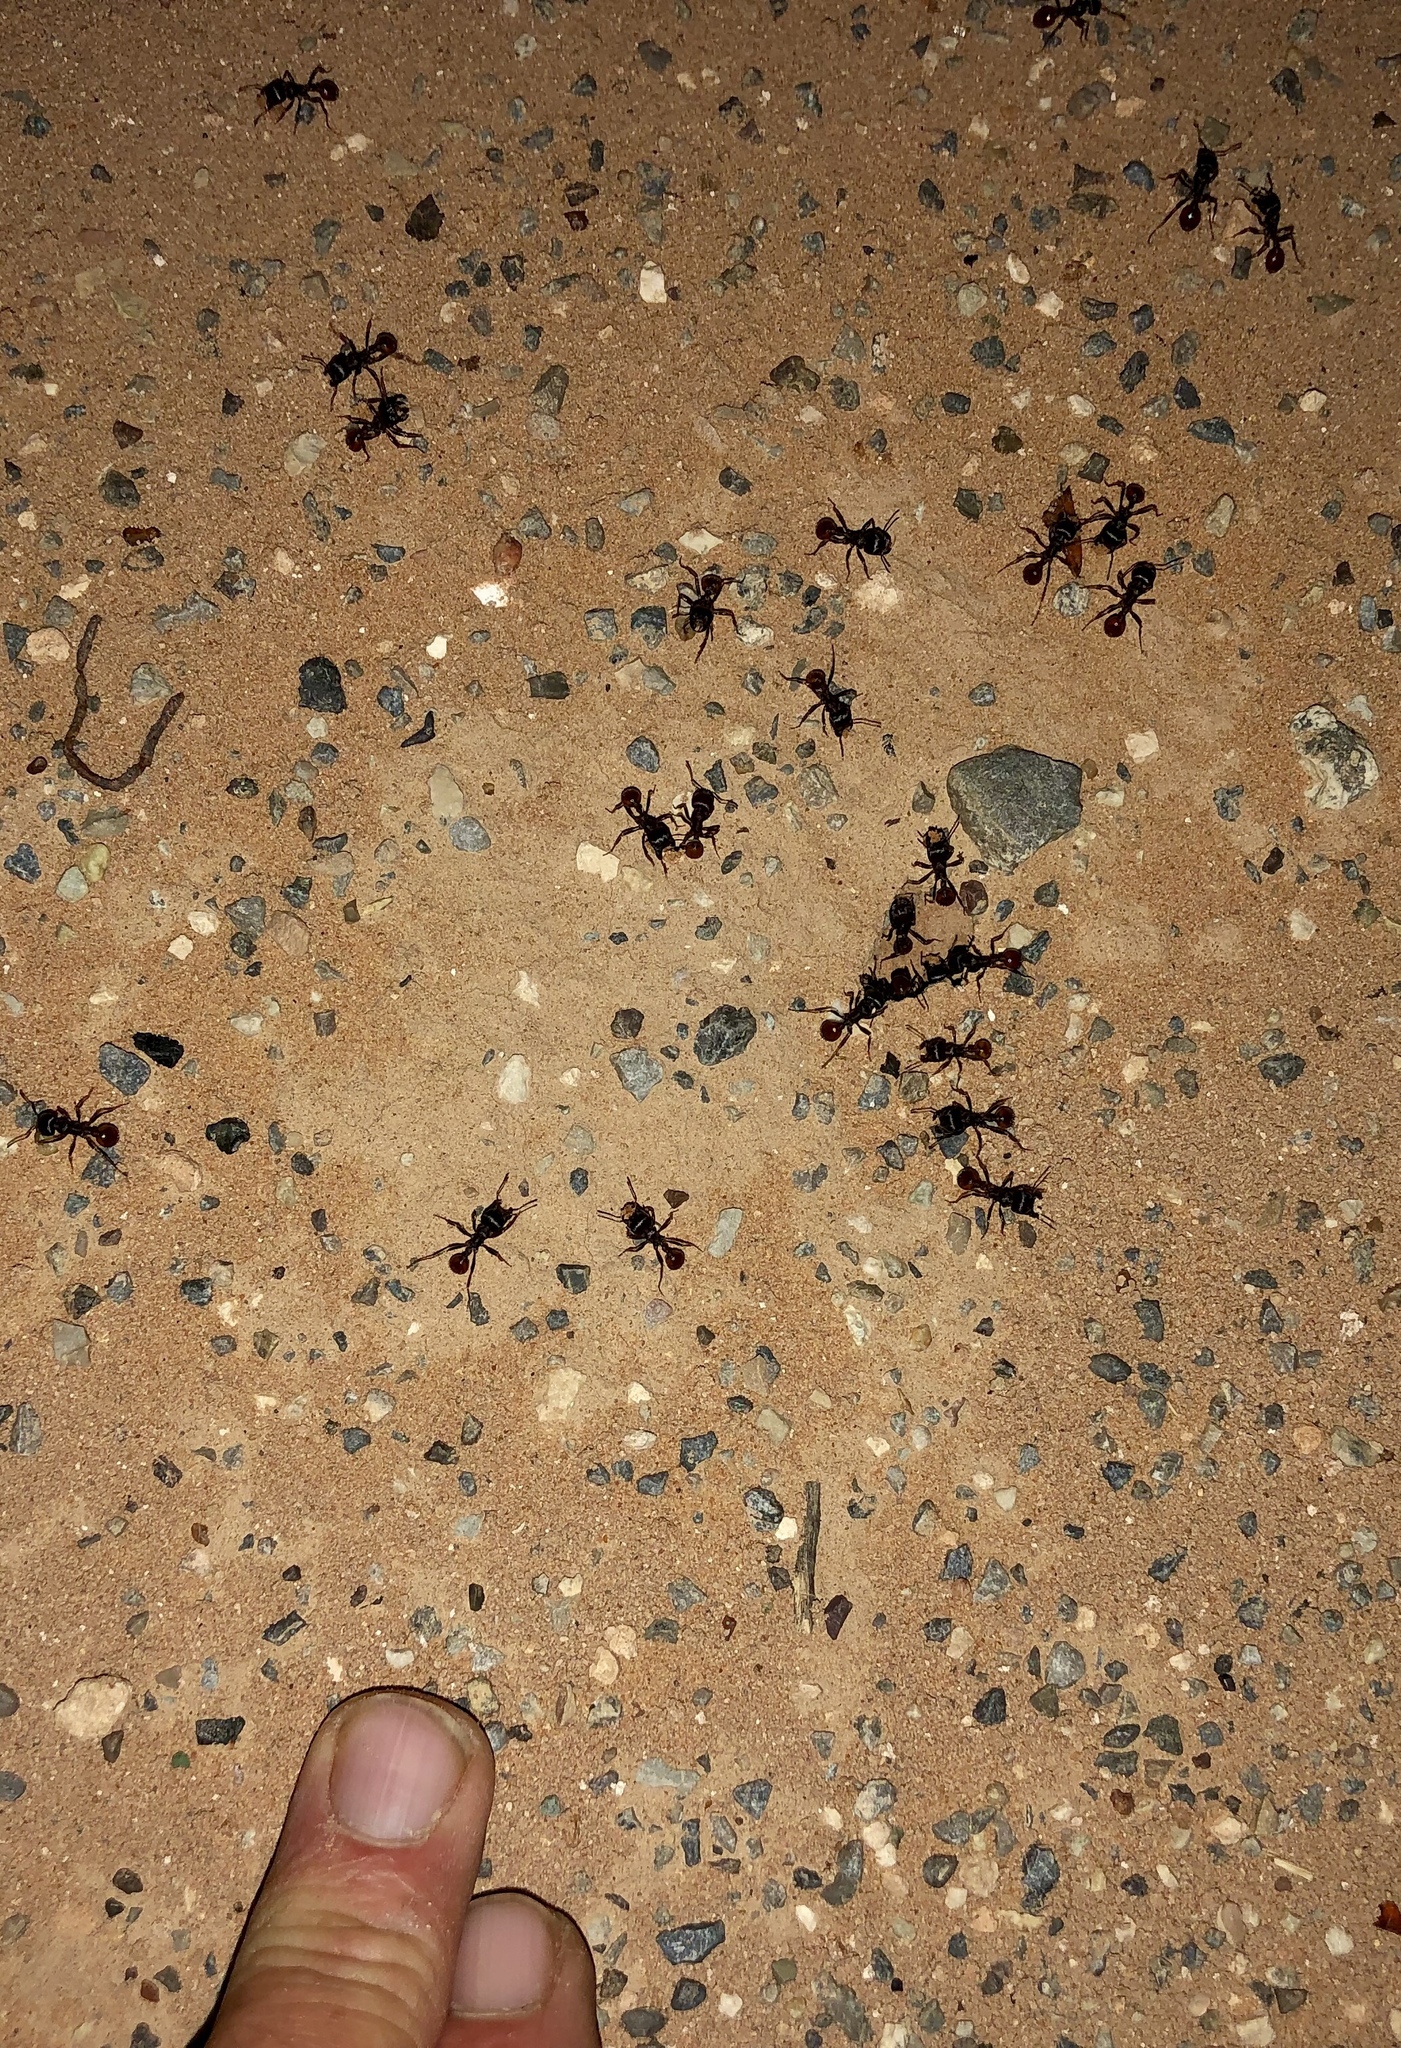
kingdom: Animalia
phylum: Arthropoda
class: Insecta
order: Hymenoptera
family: Formicidae
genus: Pogonomyrmex
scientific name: Pogonomyrmex rugosus
